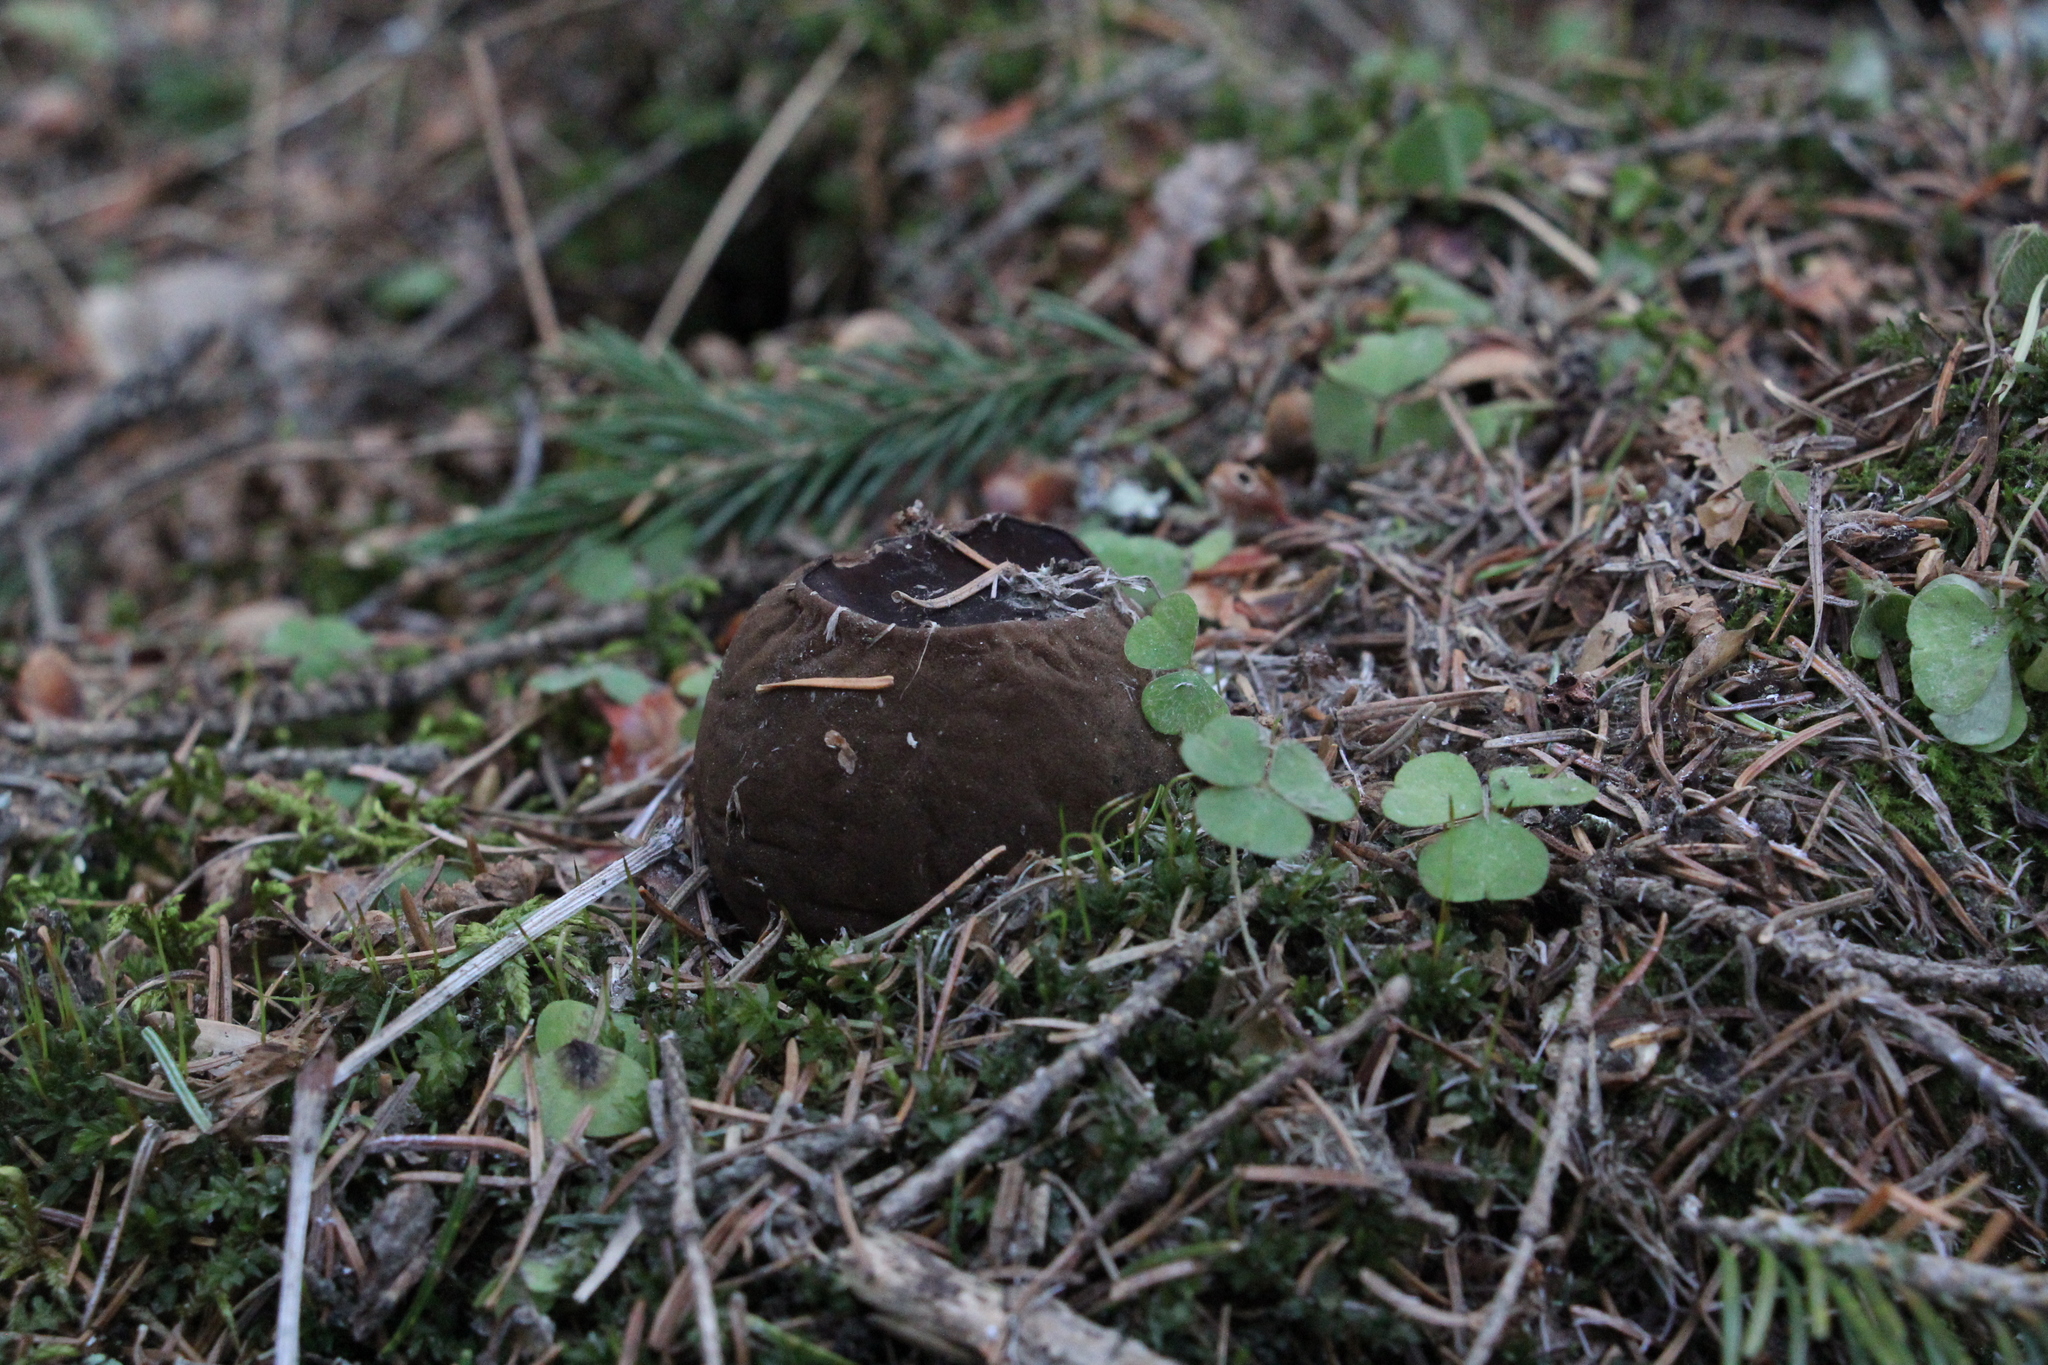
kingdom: Fungi
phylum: Ascomycota
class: Pezizomycetes
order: Pezizales
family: Sarcosomataceae
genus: Sarcosoma
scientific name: Sarcosoma globosum
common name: Charred-pancake cup
